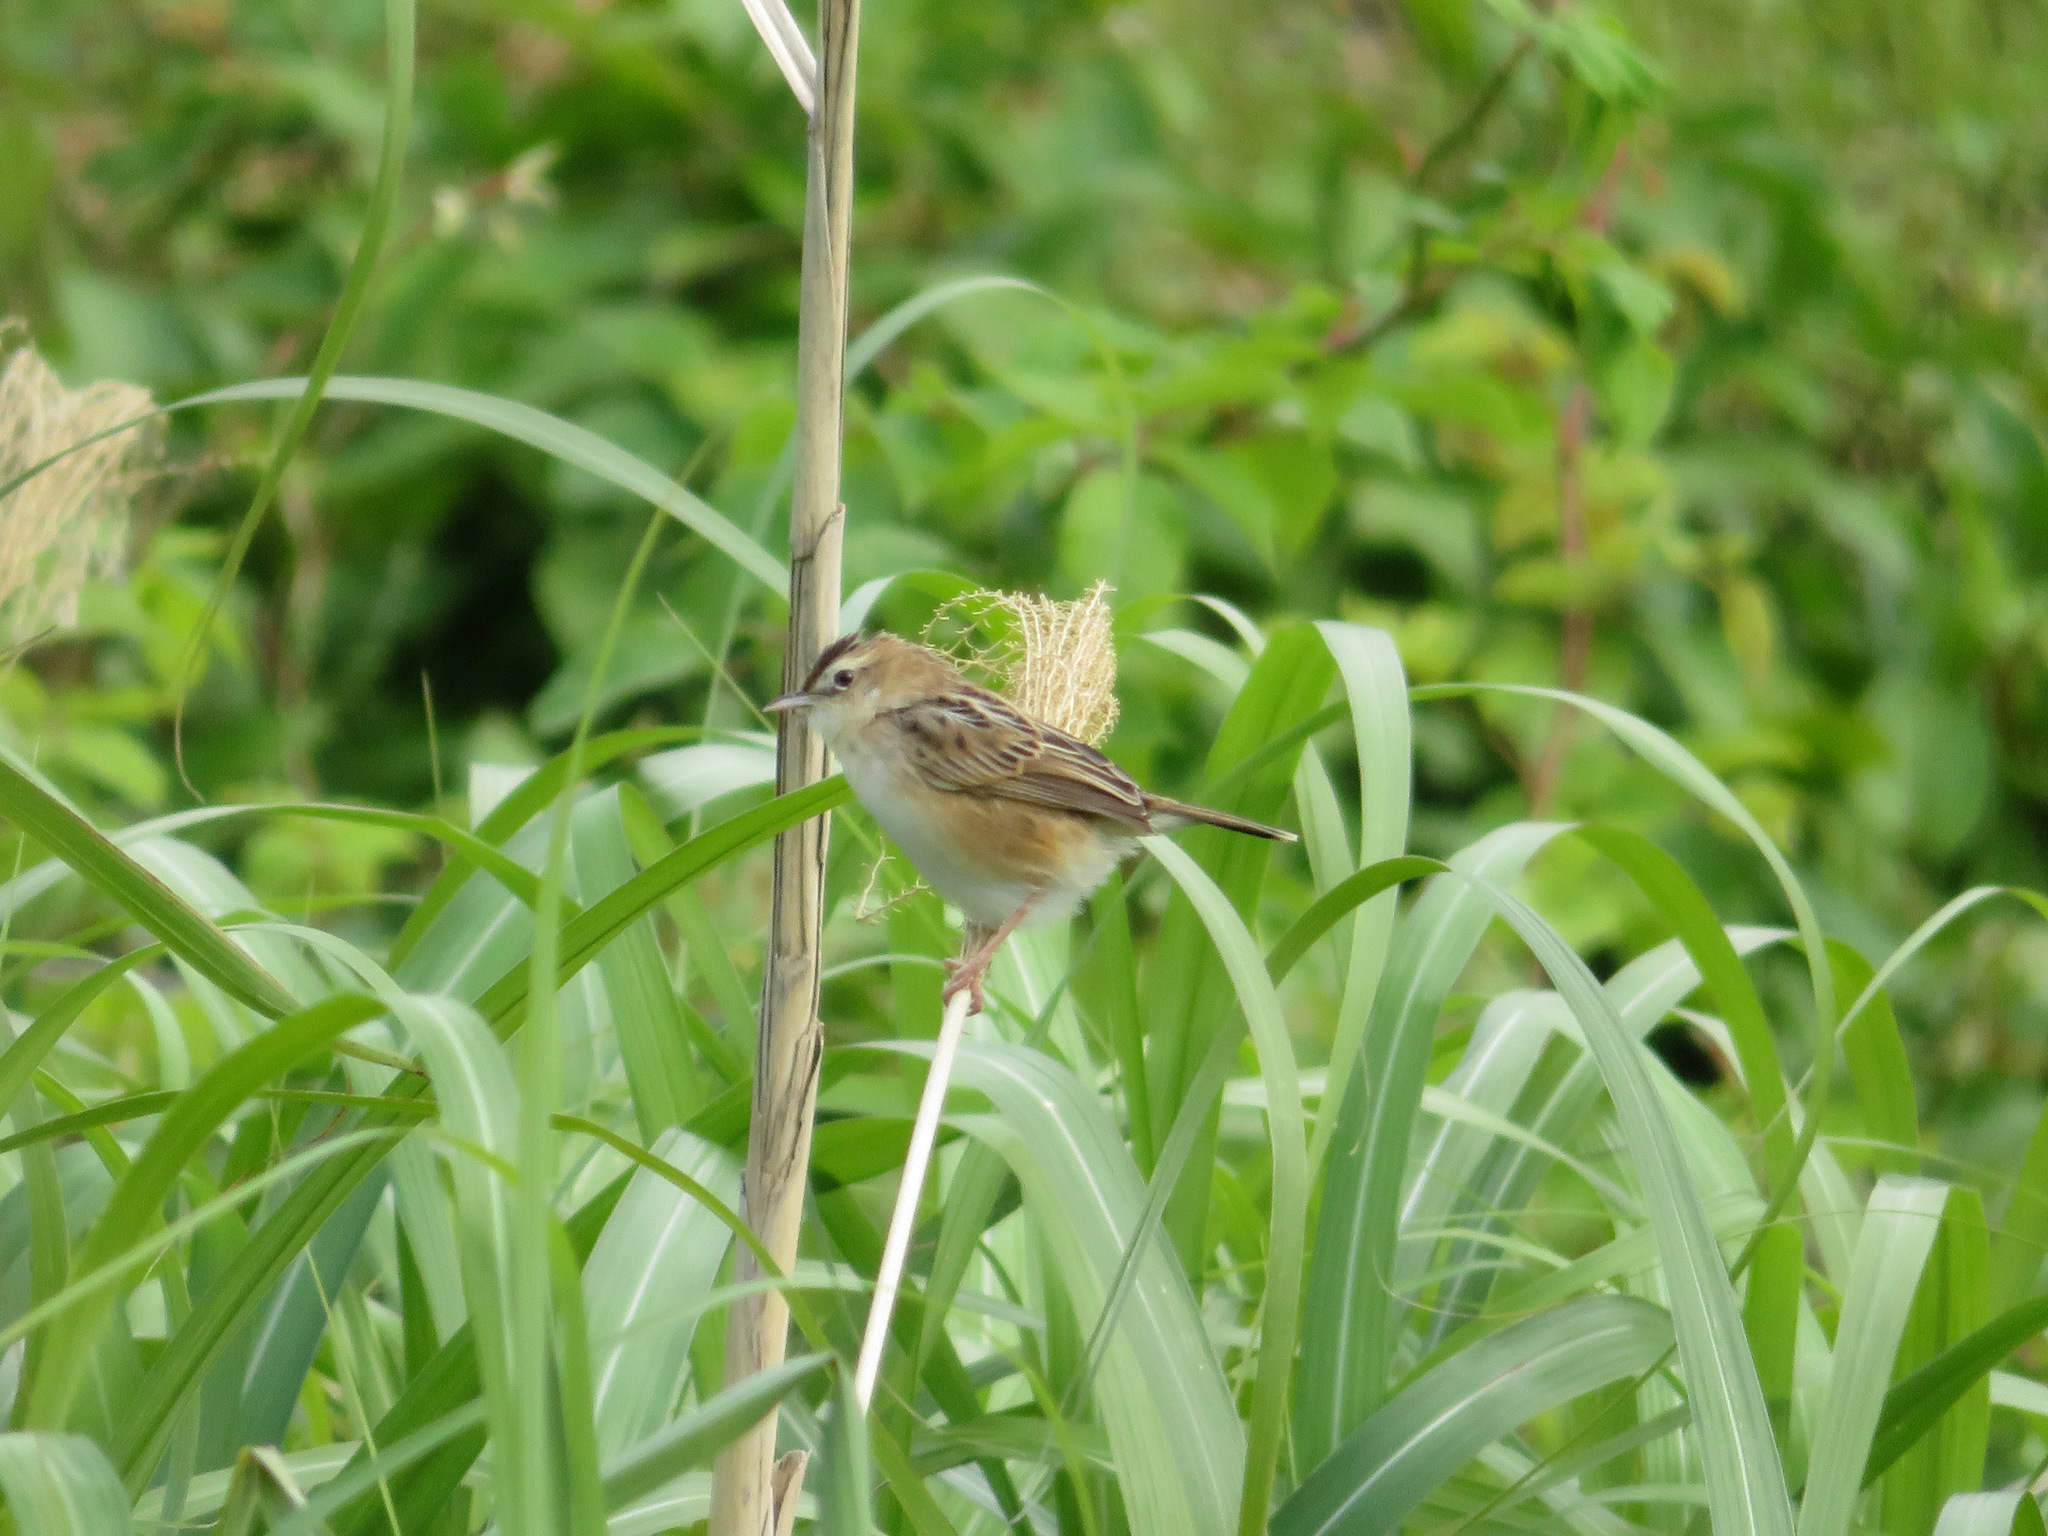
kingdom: Animalia
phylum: Chordata
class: Aves
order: Passeriformes
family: Cisticolidae
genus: Cisticola
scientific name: Cisticola juncidis
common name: Zitting cisticola
